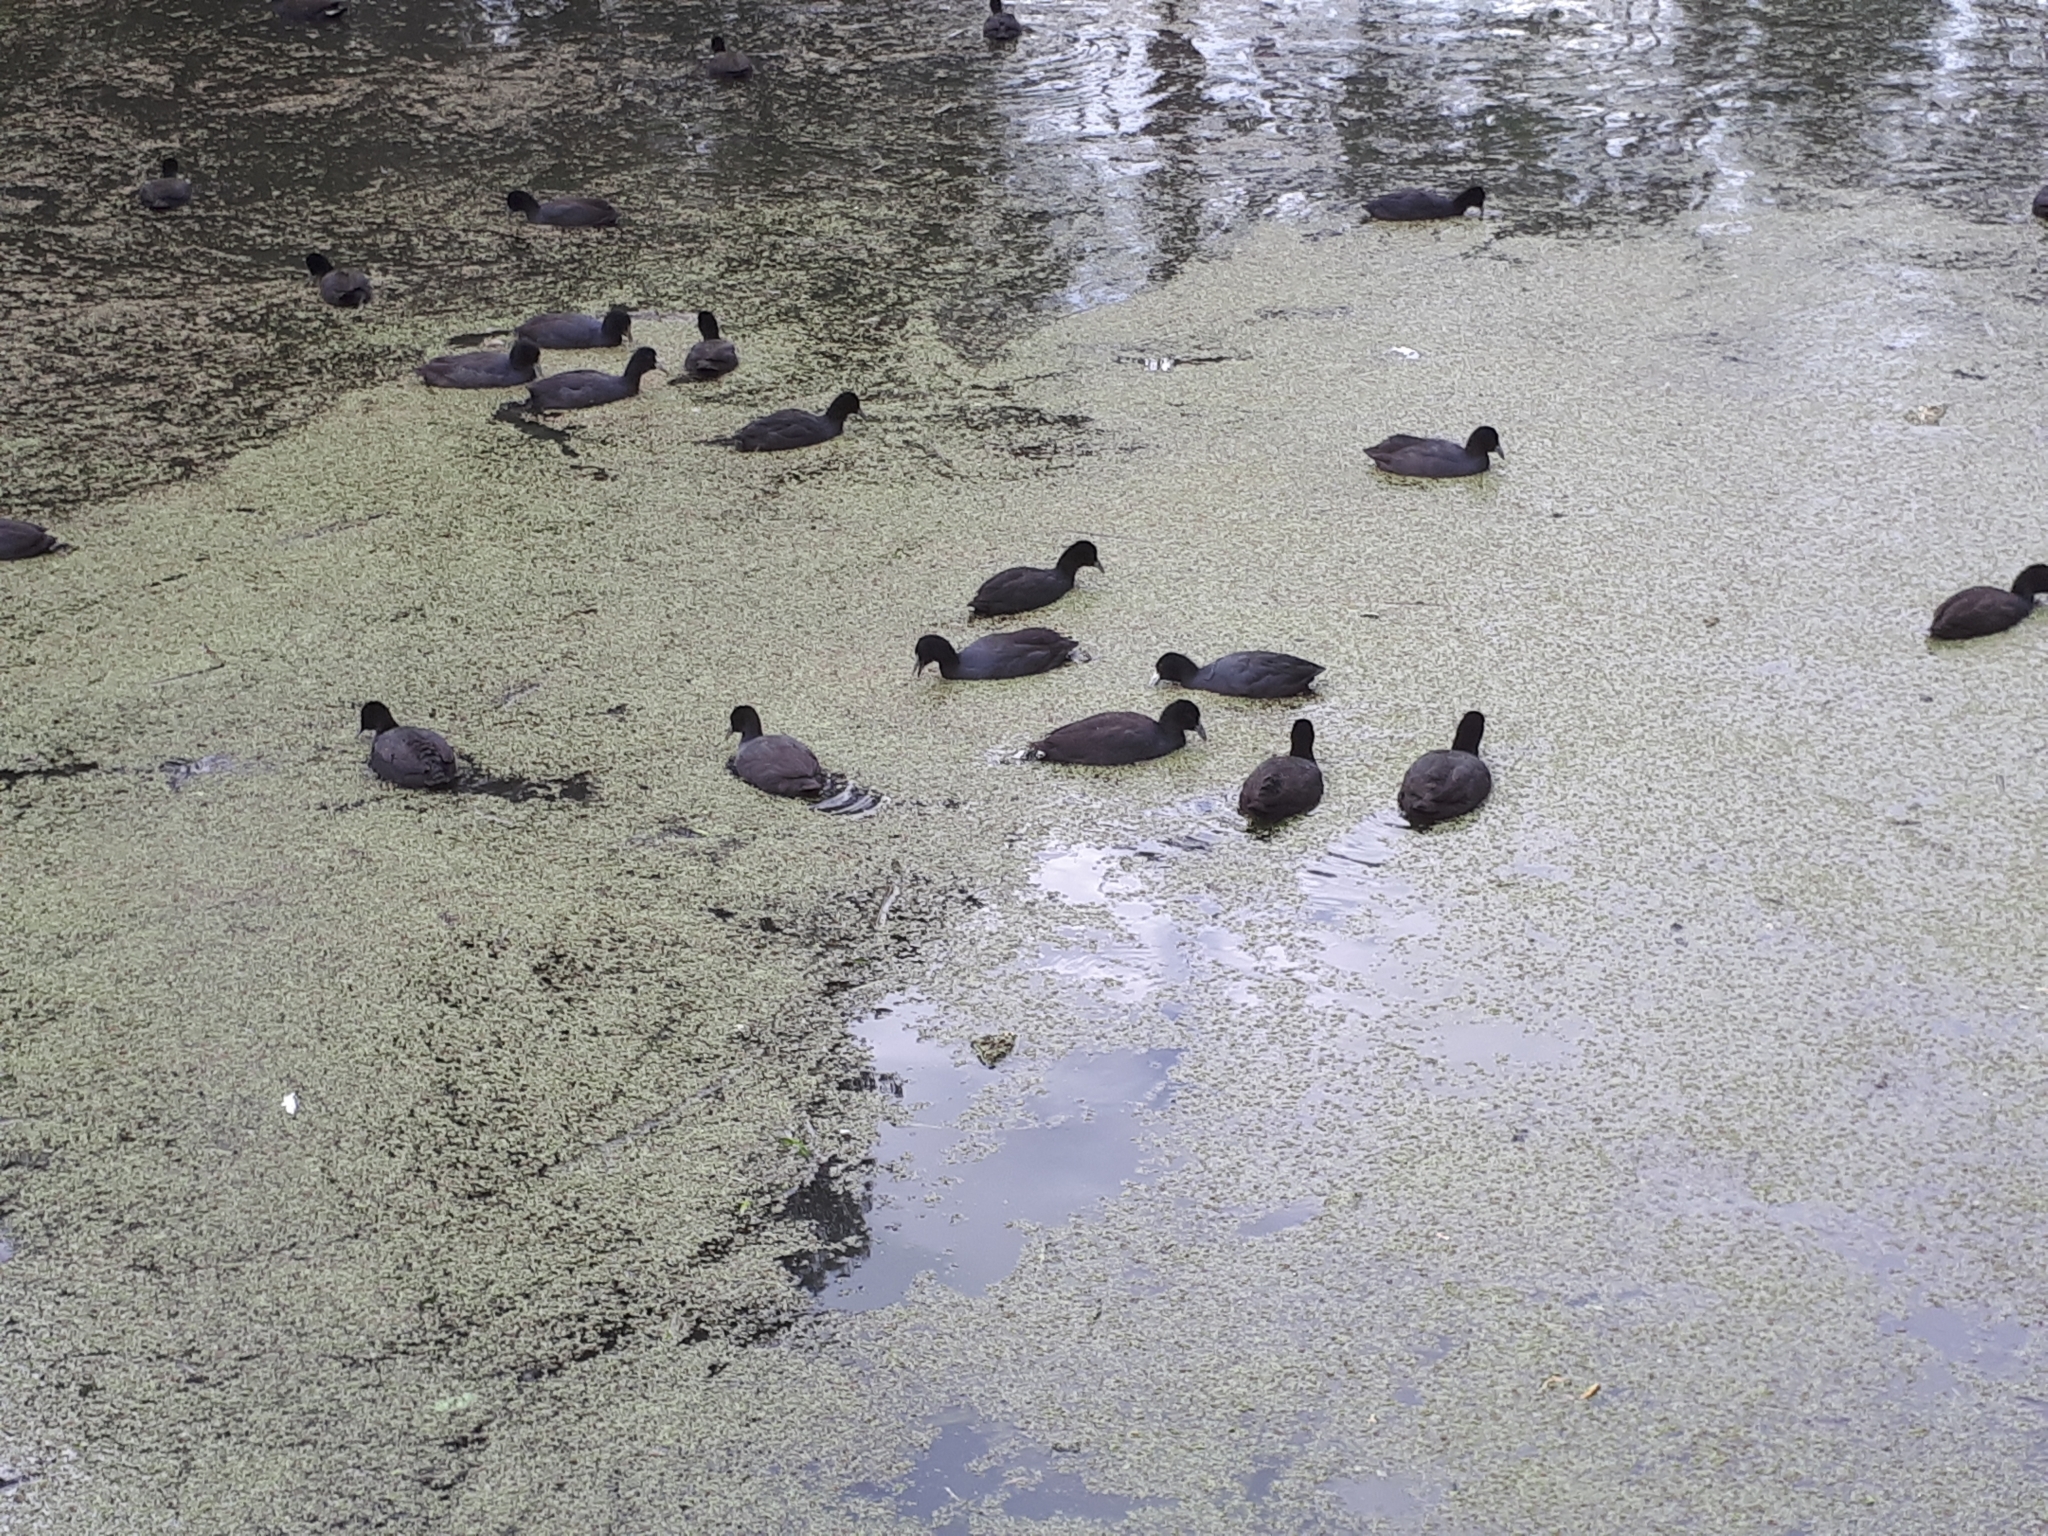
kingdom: Animalia
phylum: Chordata
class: Aves
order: Gruiformes
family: Rallidae
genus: Fulica
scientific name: Fulica atra
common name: Eurasian coot
